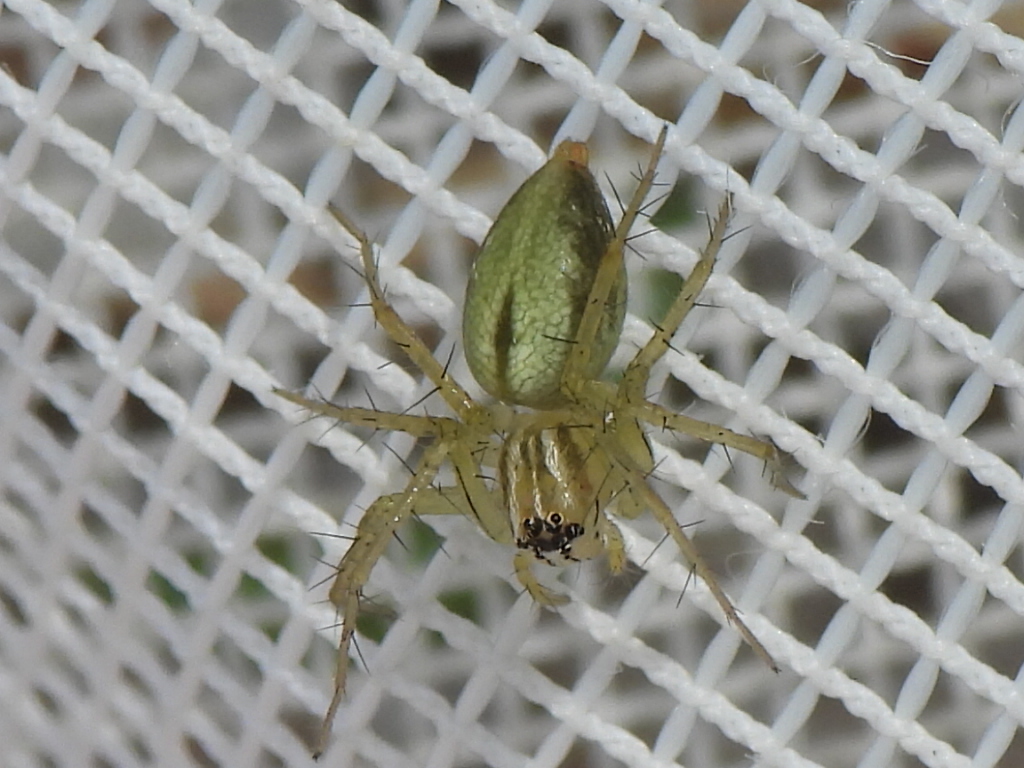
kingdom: Animalia
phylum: Arthropoda
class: Arachnida
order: Araneae
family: Oxyopidae
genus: Oxyopes
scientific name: Oxyopes salticus
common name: Lynx spiders
